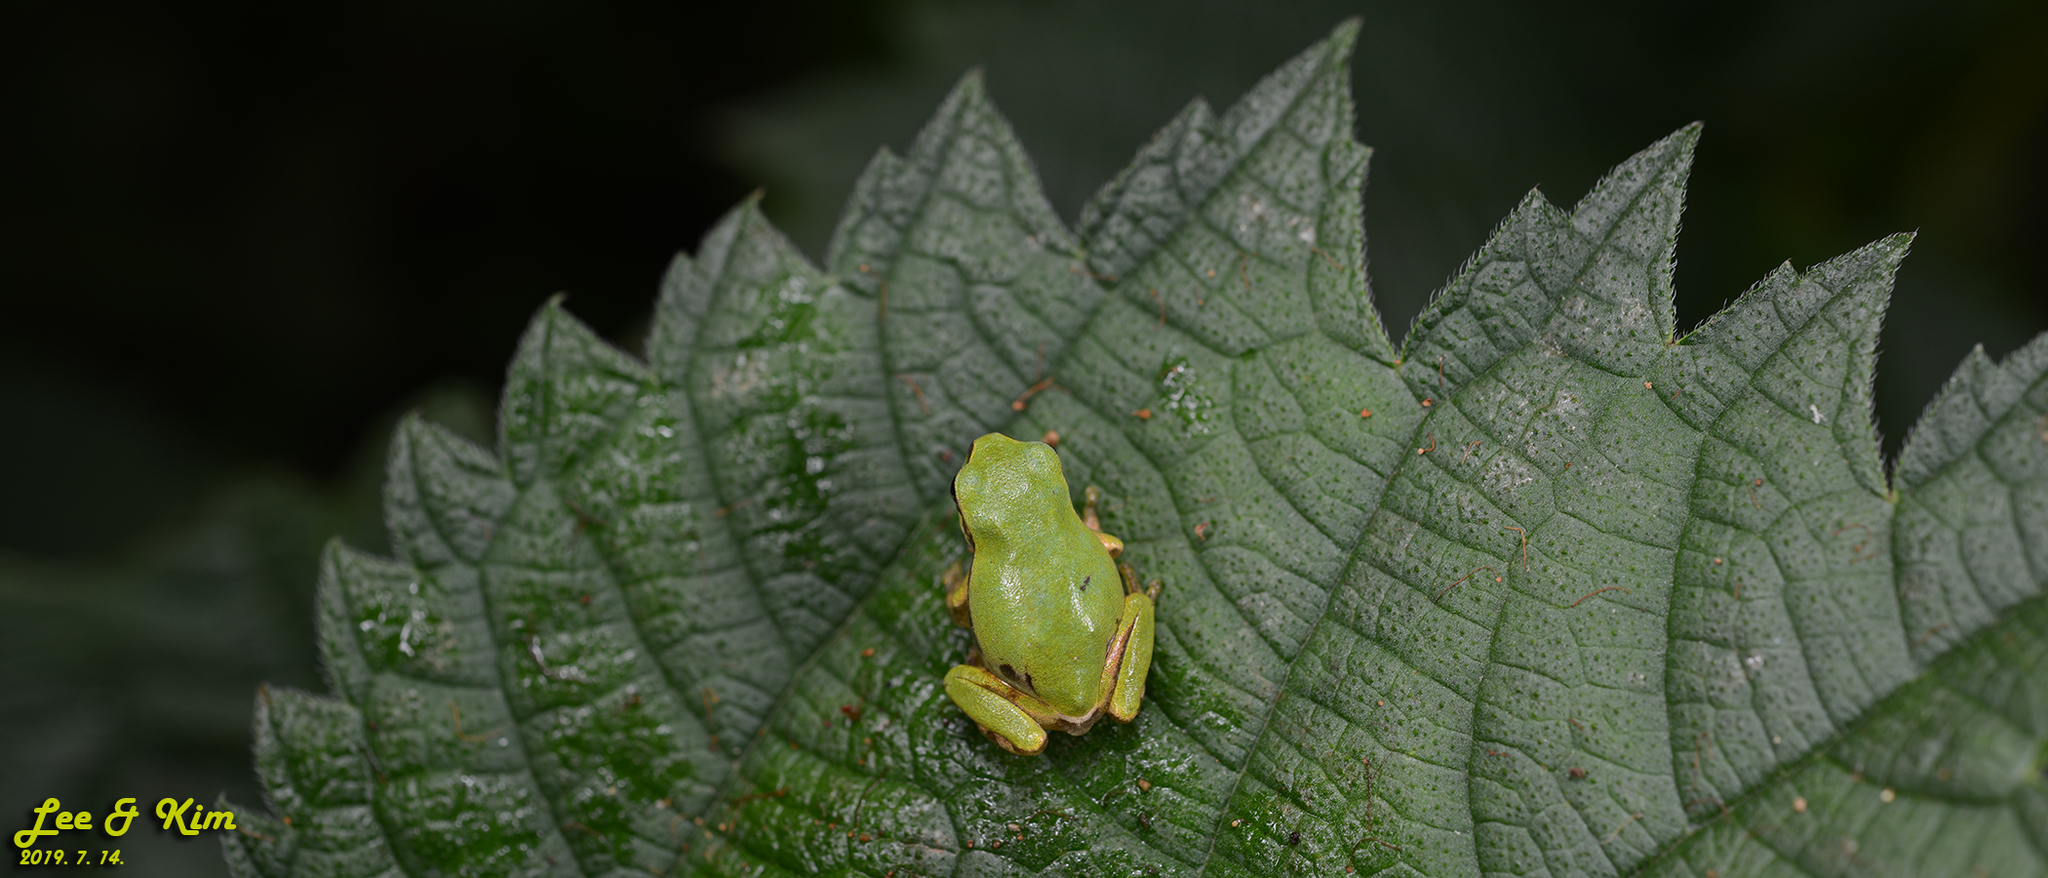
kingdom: Animalia
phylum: Chordata
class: Amphibia
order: Anura
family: Hylidae
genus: Dryophytes
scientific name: Dryophytes japonicus
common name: Japanese treefrog
